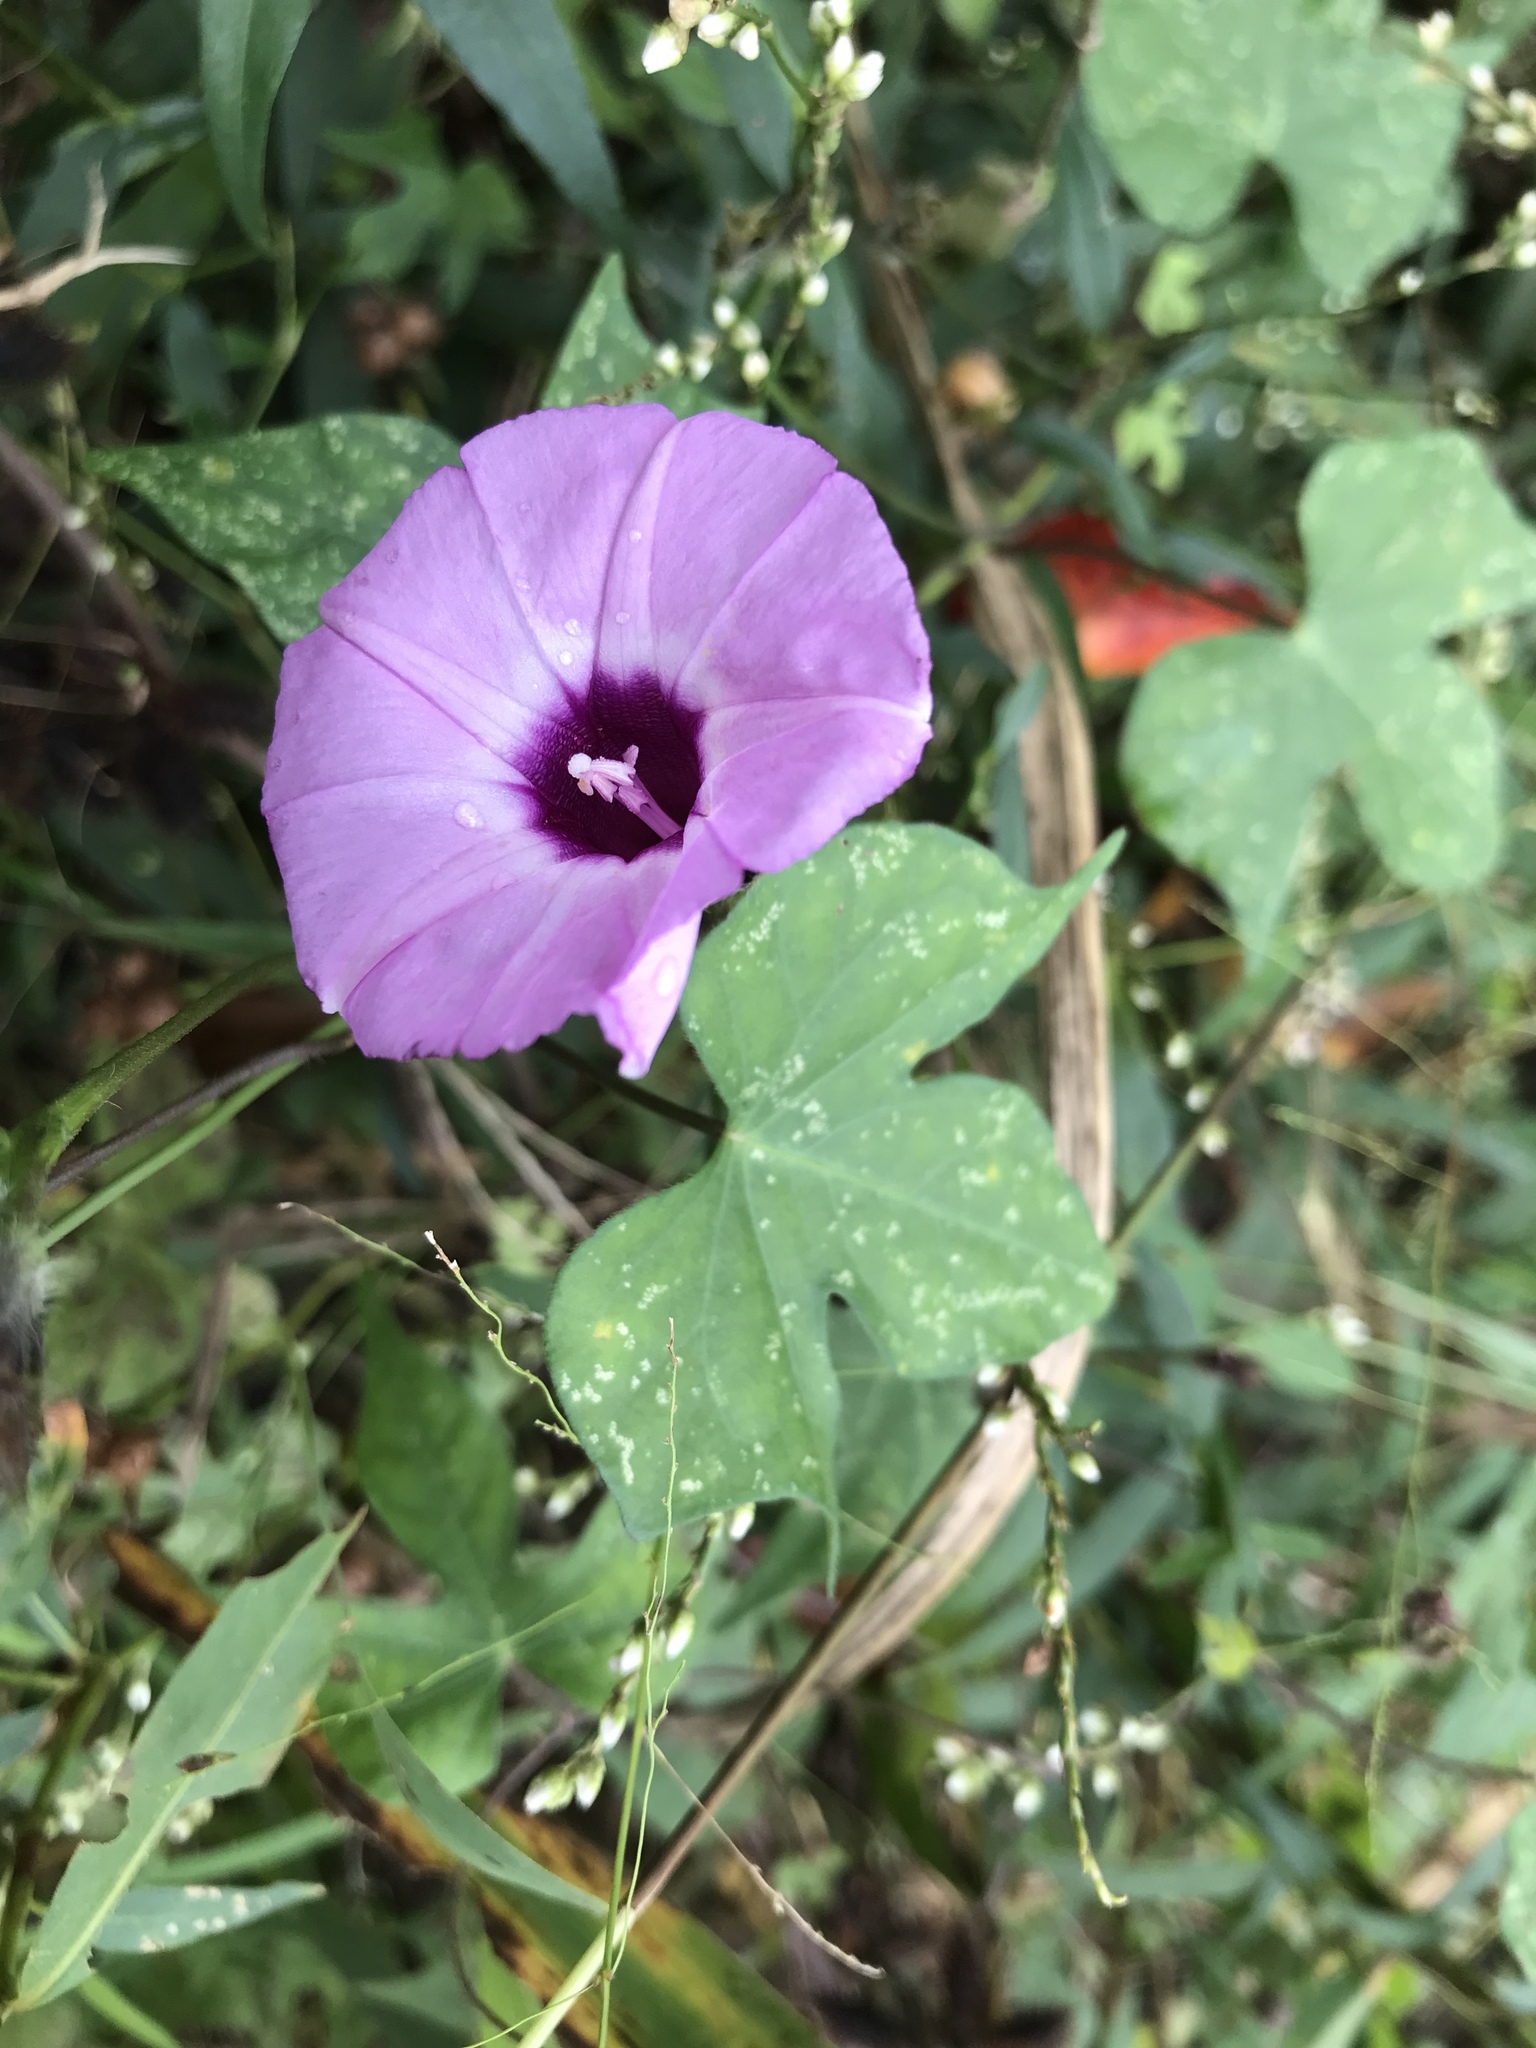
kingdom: Plantae
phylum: Tracheophyta
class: Magnoliopsida
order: Solanales
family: Convolvulaceae
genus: Ipomoea
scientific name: Ipomoea cordatotriloba
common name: Cotton morning glory
